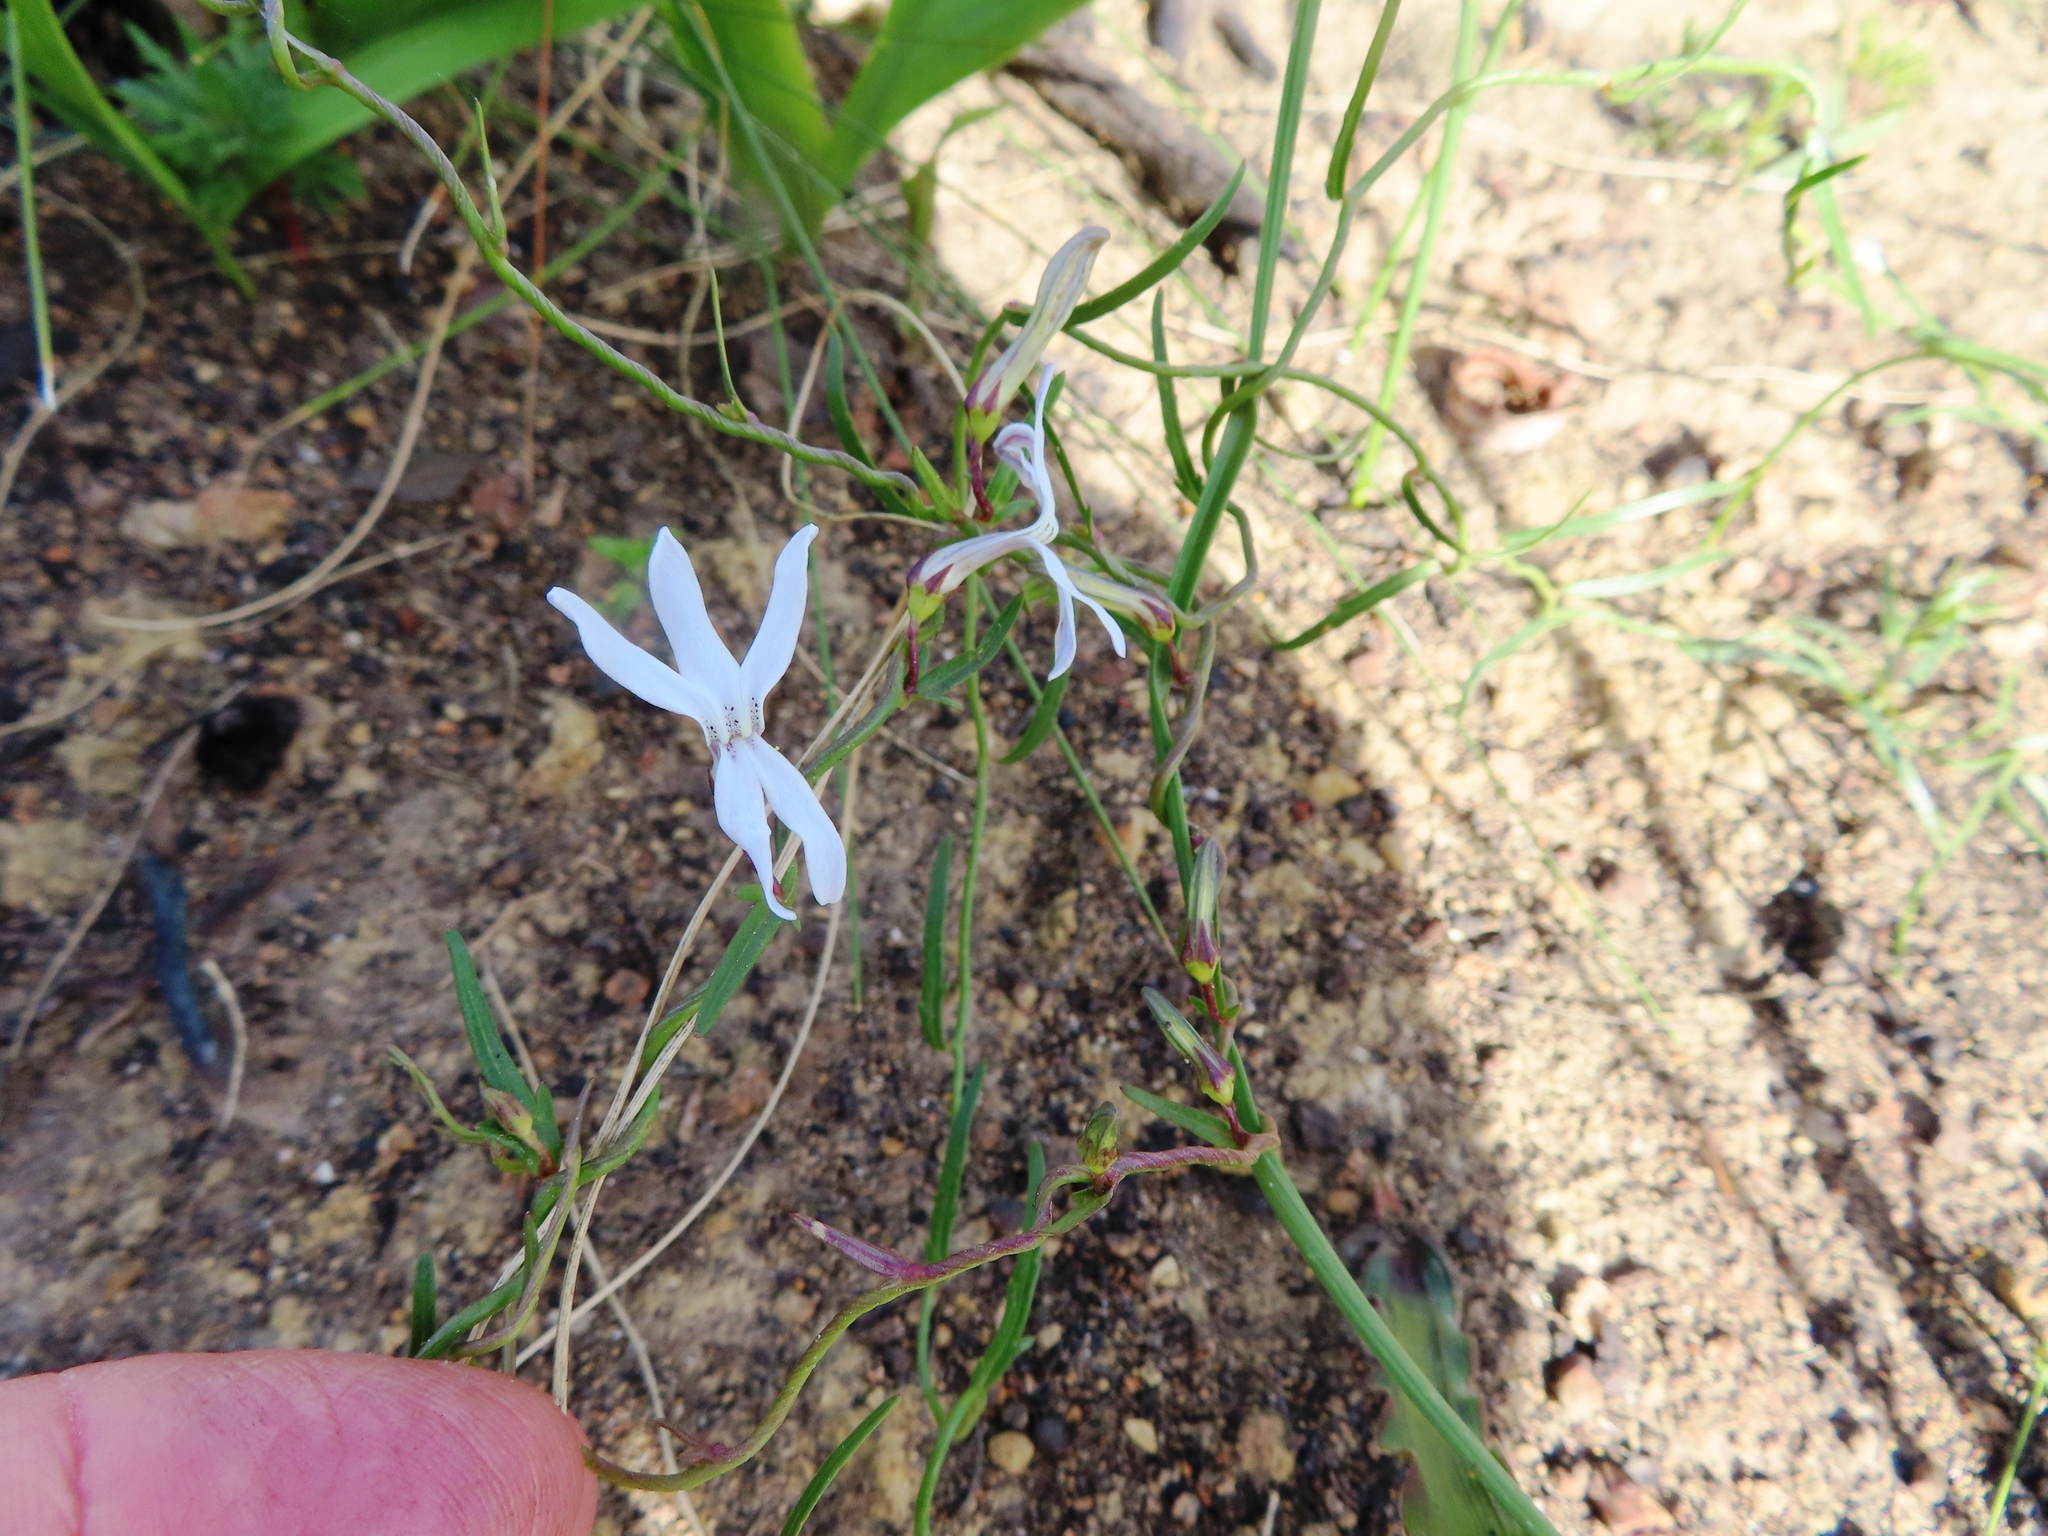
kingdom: Plantae
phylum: Tracheophyta
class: Magnoliopsida
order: Asterales
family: Campanulaceae
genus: Cyphia
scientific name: Cyphia volubilis
